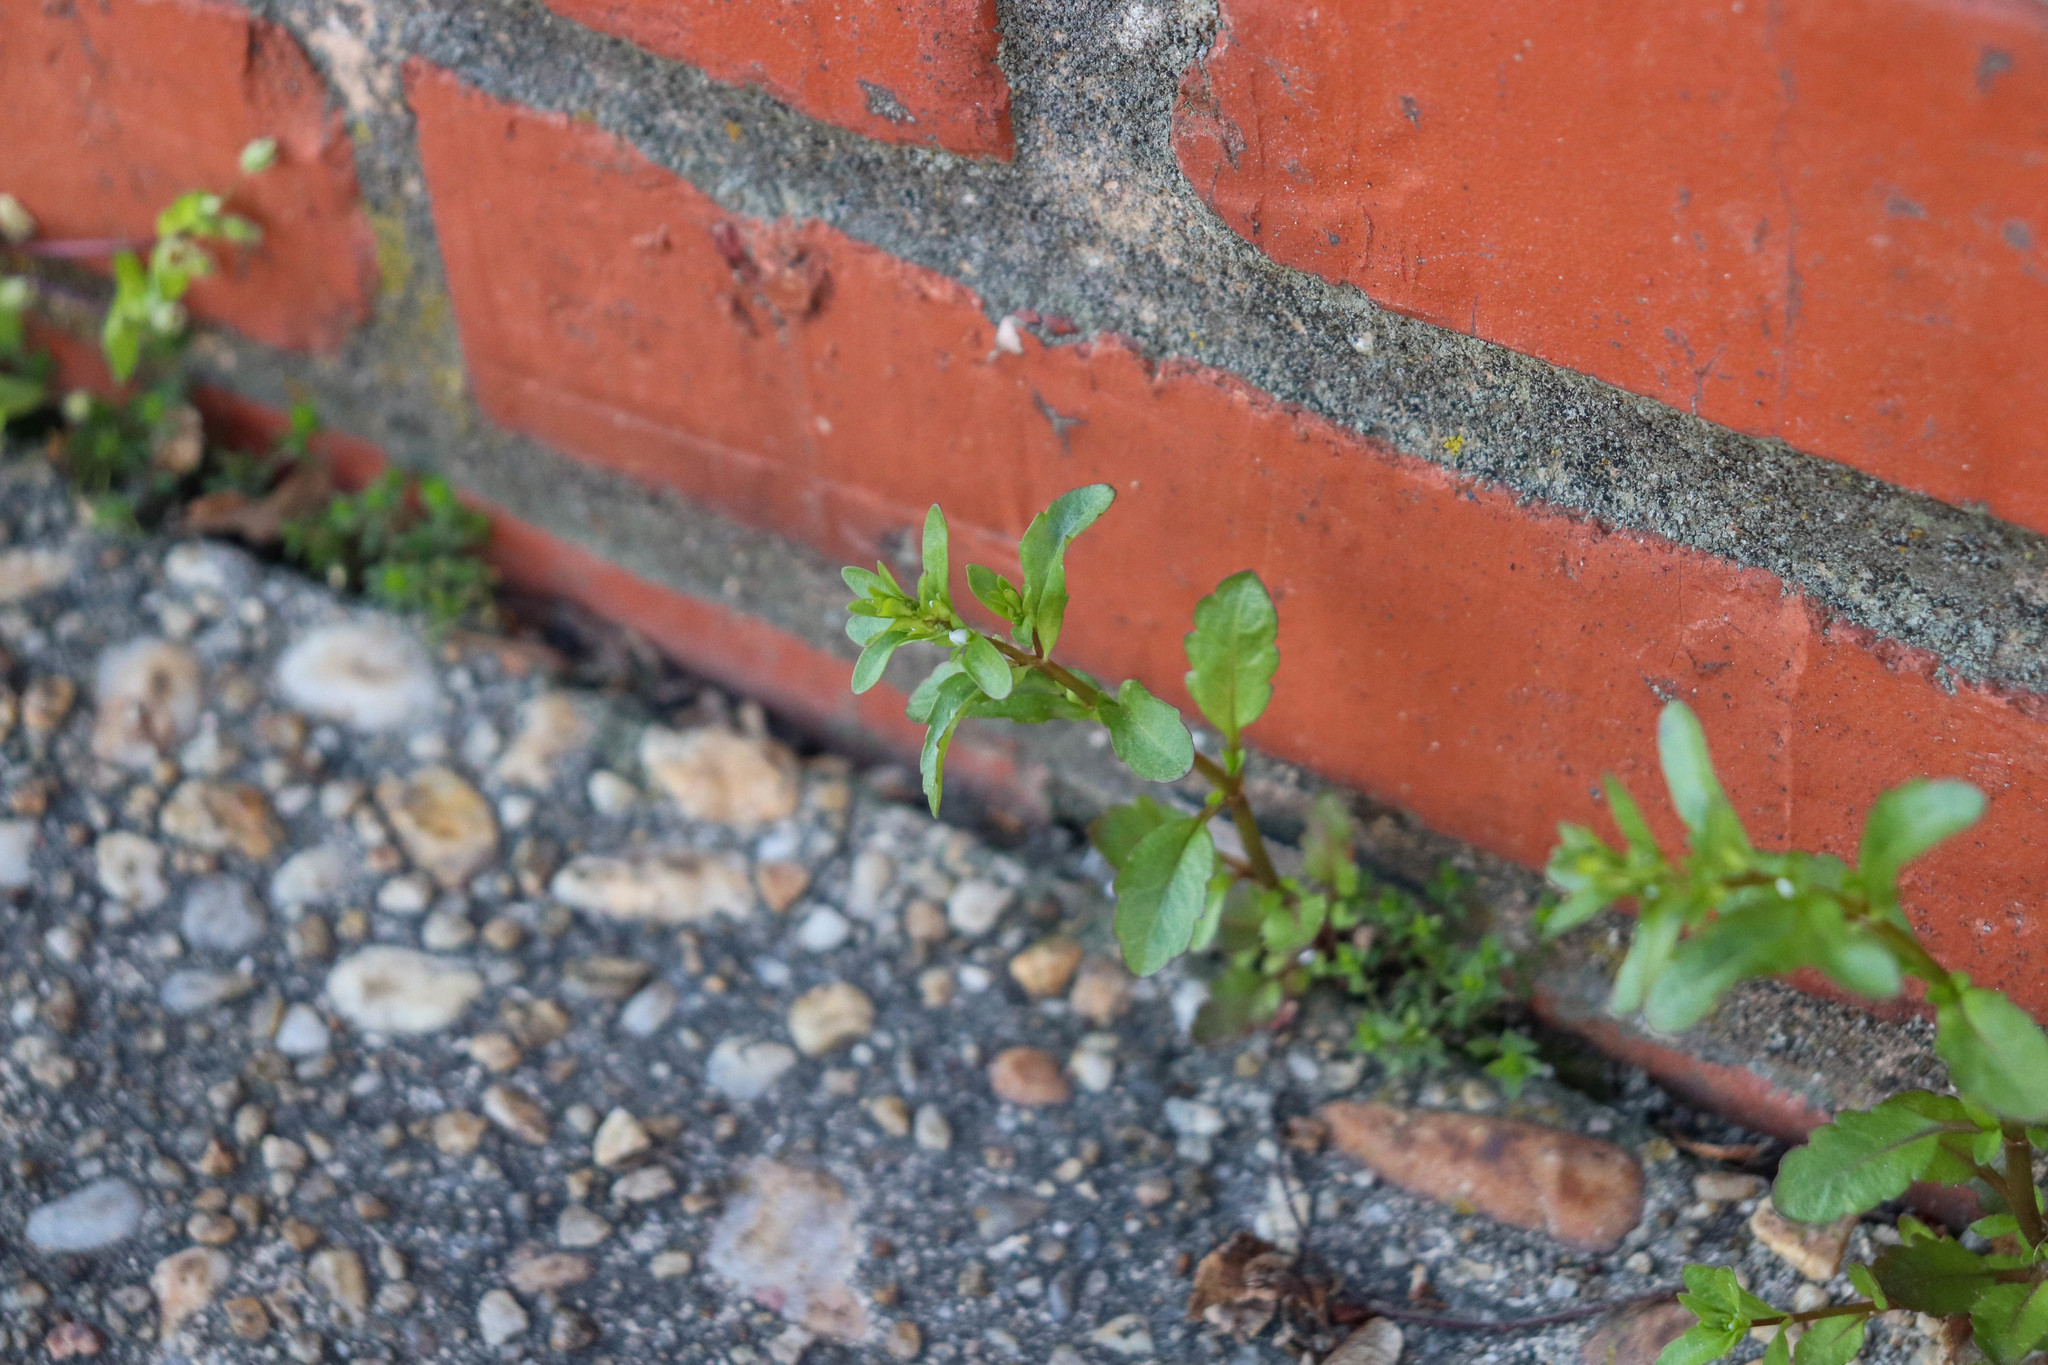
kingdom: Plantae
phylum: Tracheophyta
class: Magnoliopsida
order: Lamiales
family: Plantaginaceae
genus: Veronica
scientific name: Veronica peregrina
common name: Neckweed
